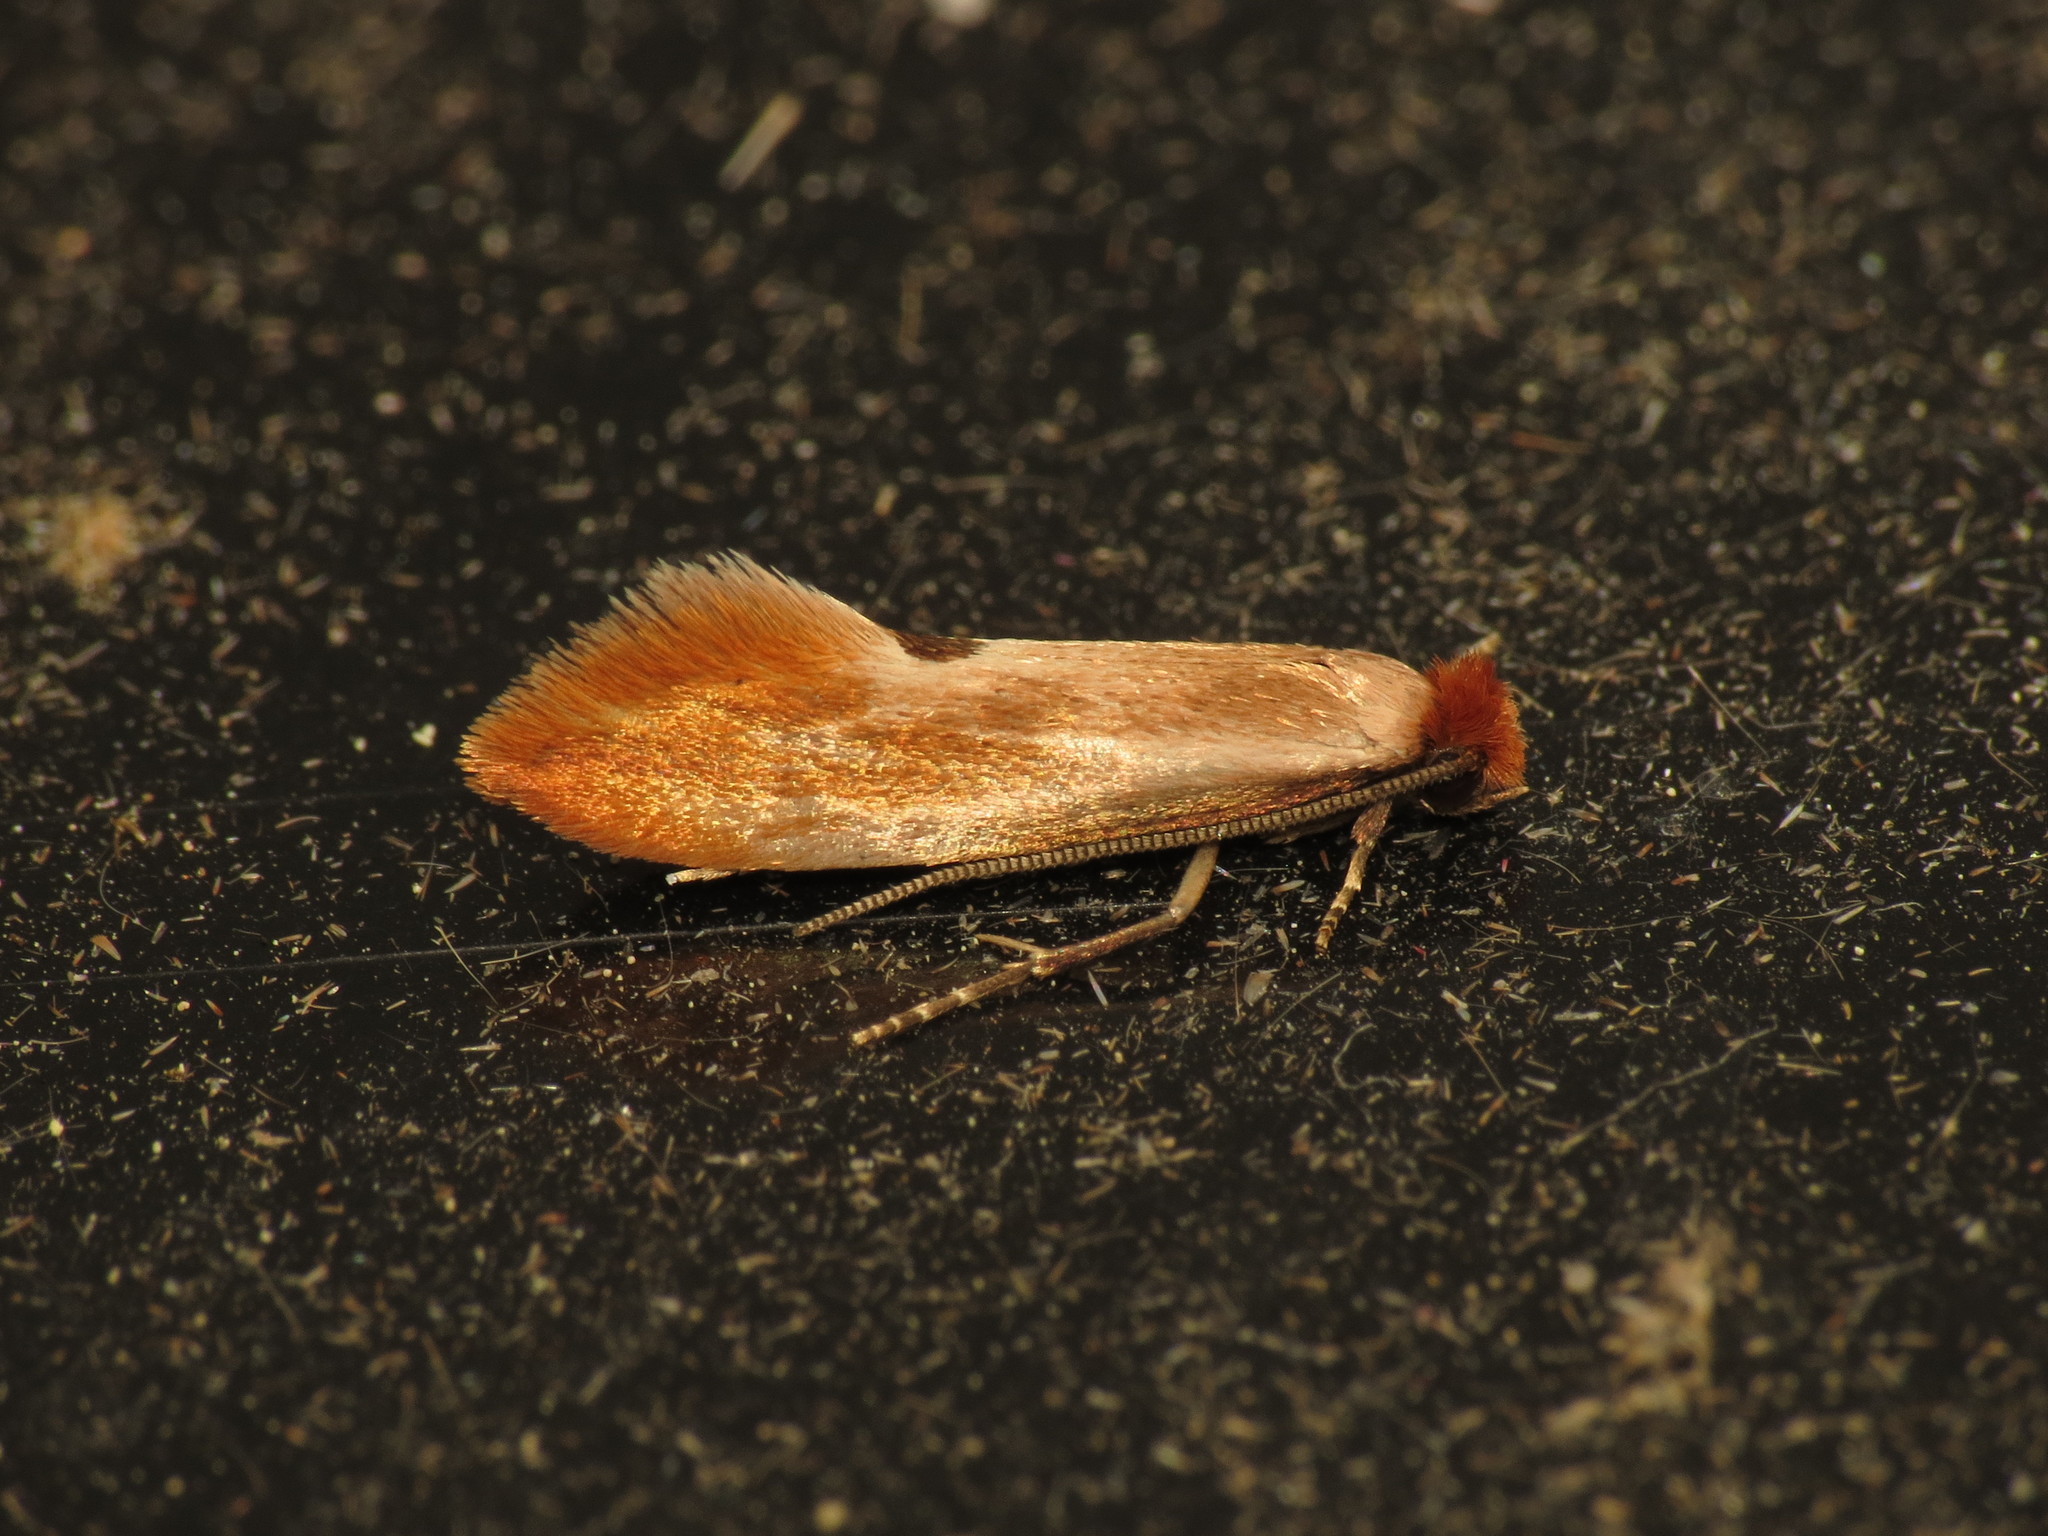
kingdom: Animalia
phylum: Arthropoda
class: Insecta
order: Lepidoptera
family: Tineidae
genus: Tinea
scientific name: Tinea semifulvella
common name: Fulvous clothes
